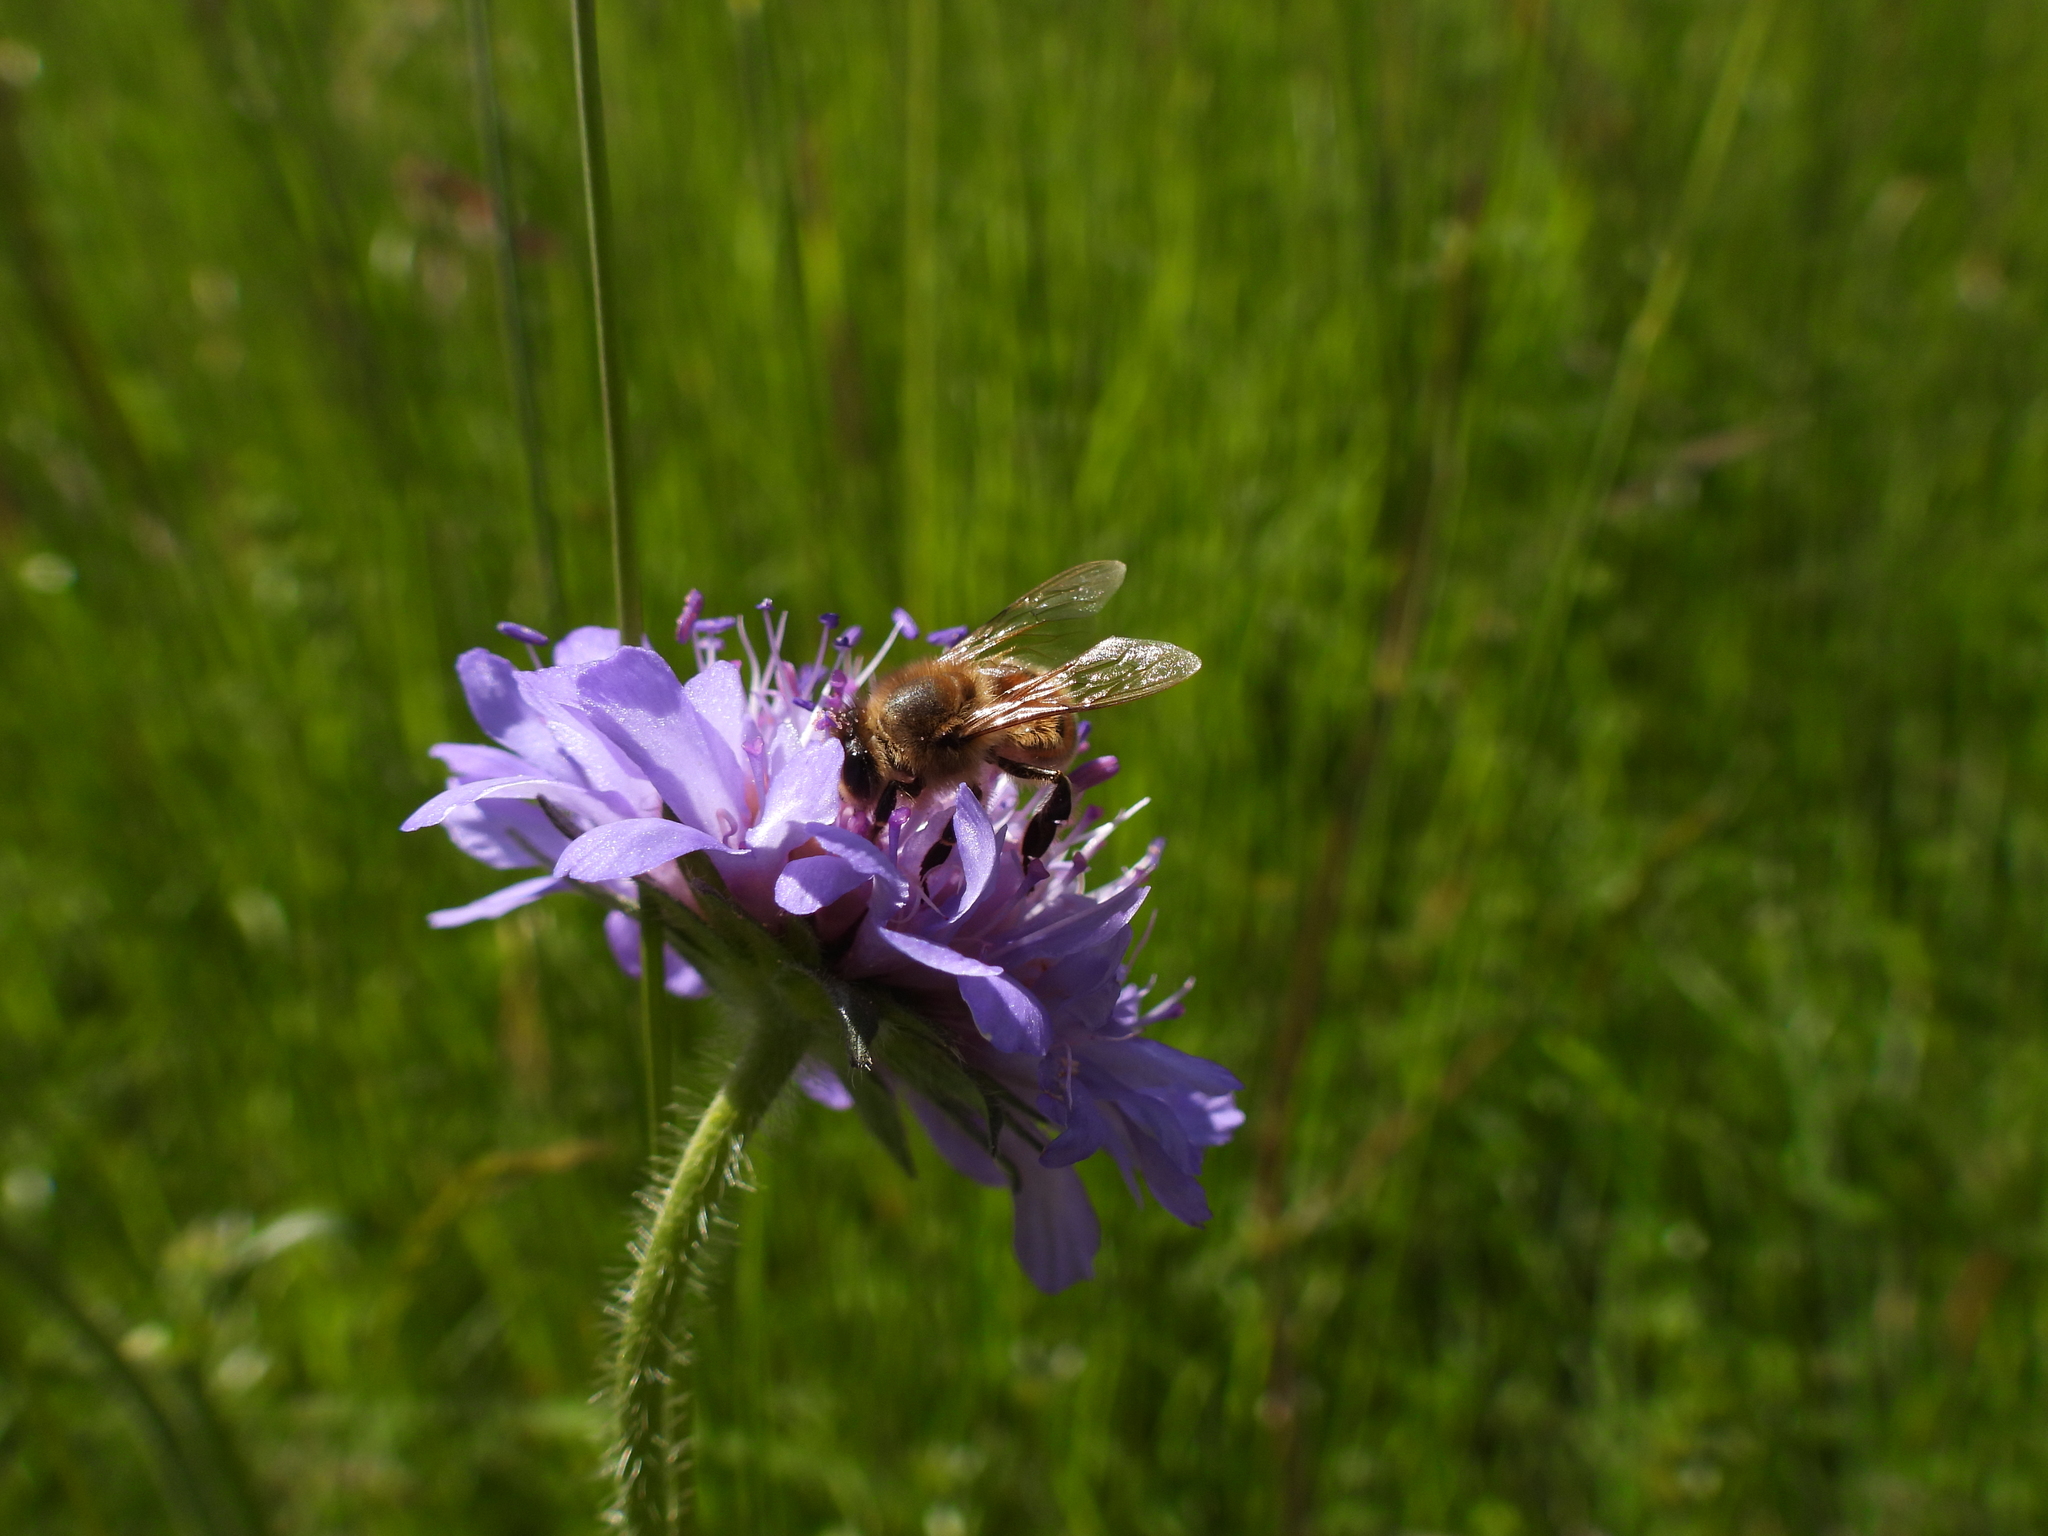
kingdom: Plantae
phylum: Tracheophyta
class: Magnoliopsida
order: Dipsacales
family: Caprifoliaceae
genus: Knautia
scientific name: Knautia arvensis
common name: Field scabiosa
